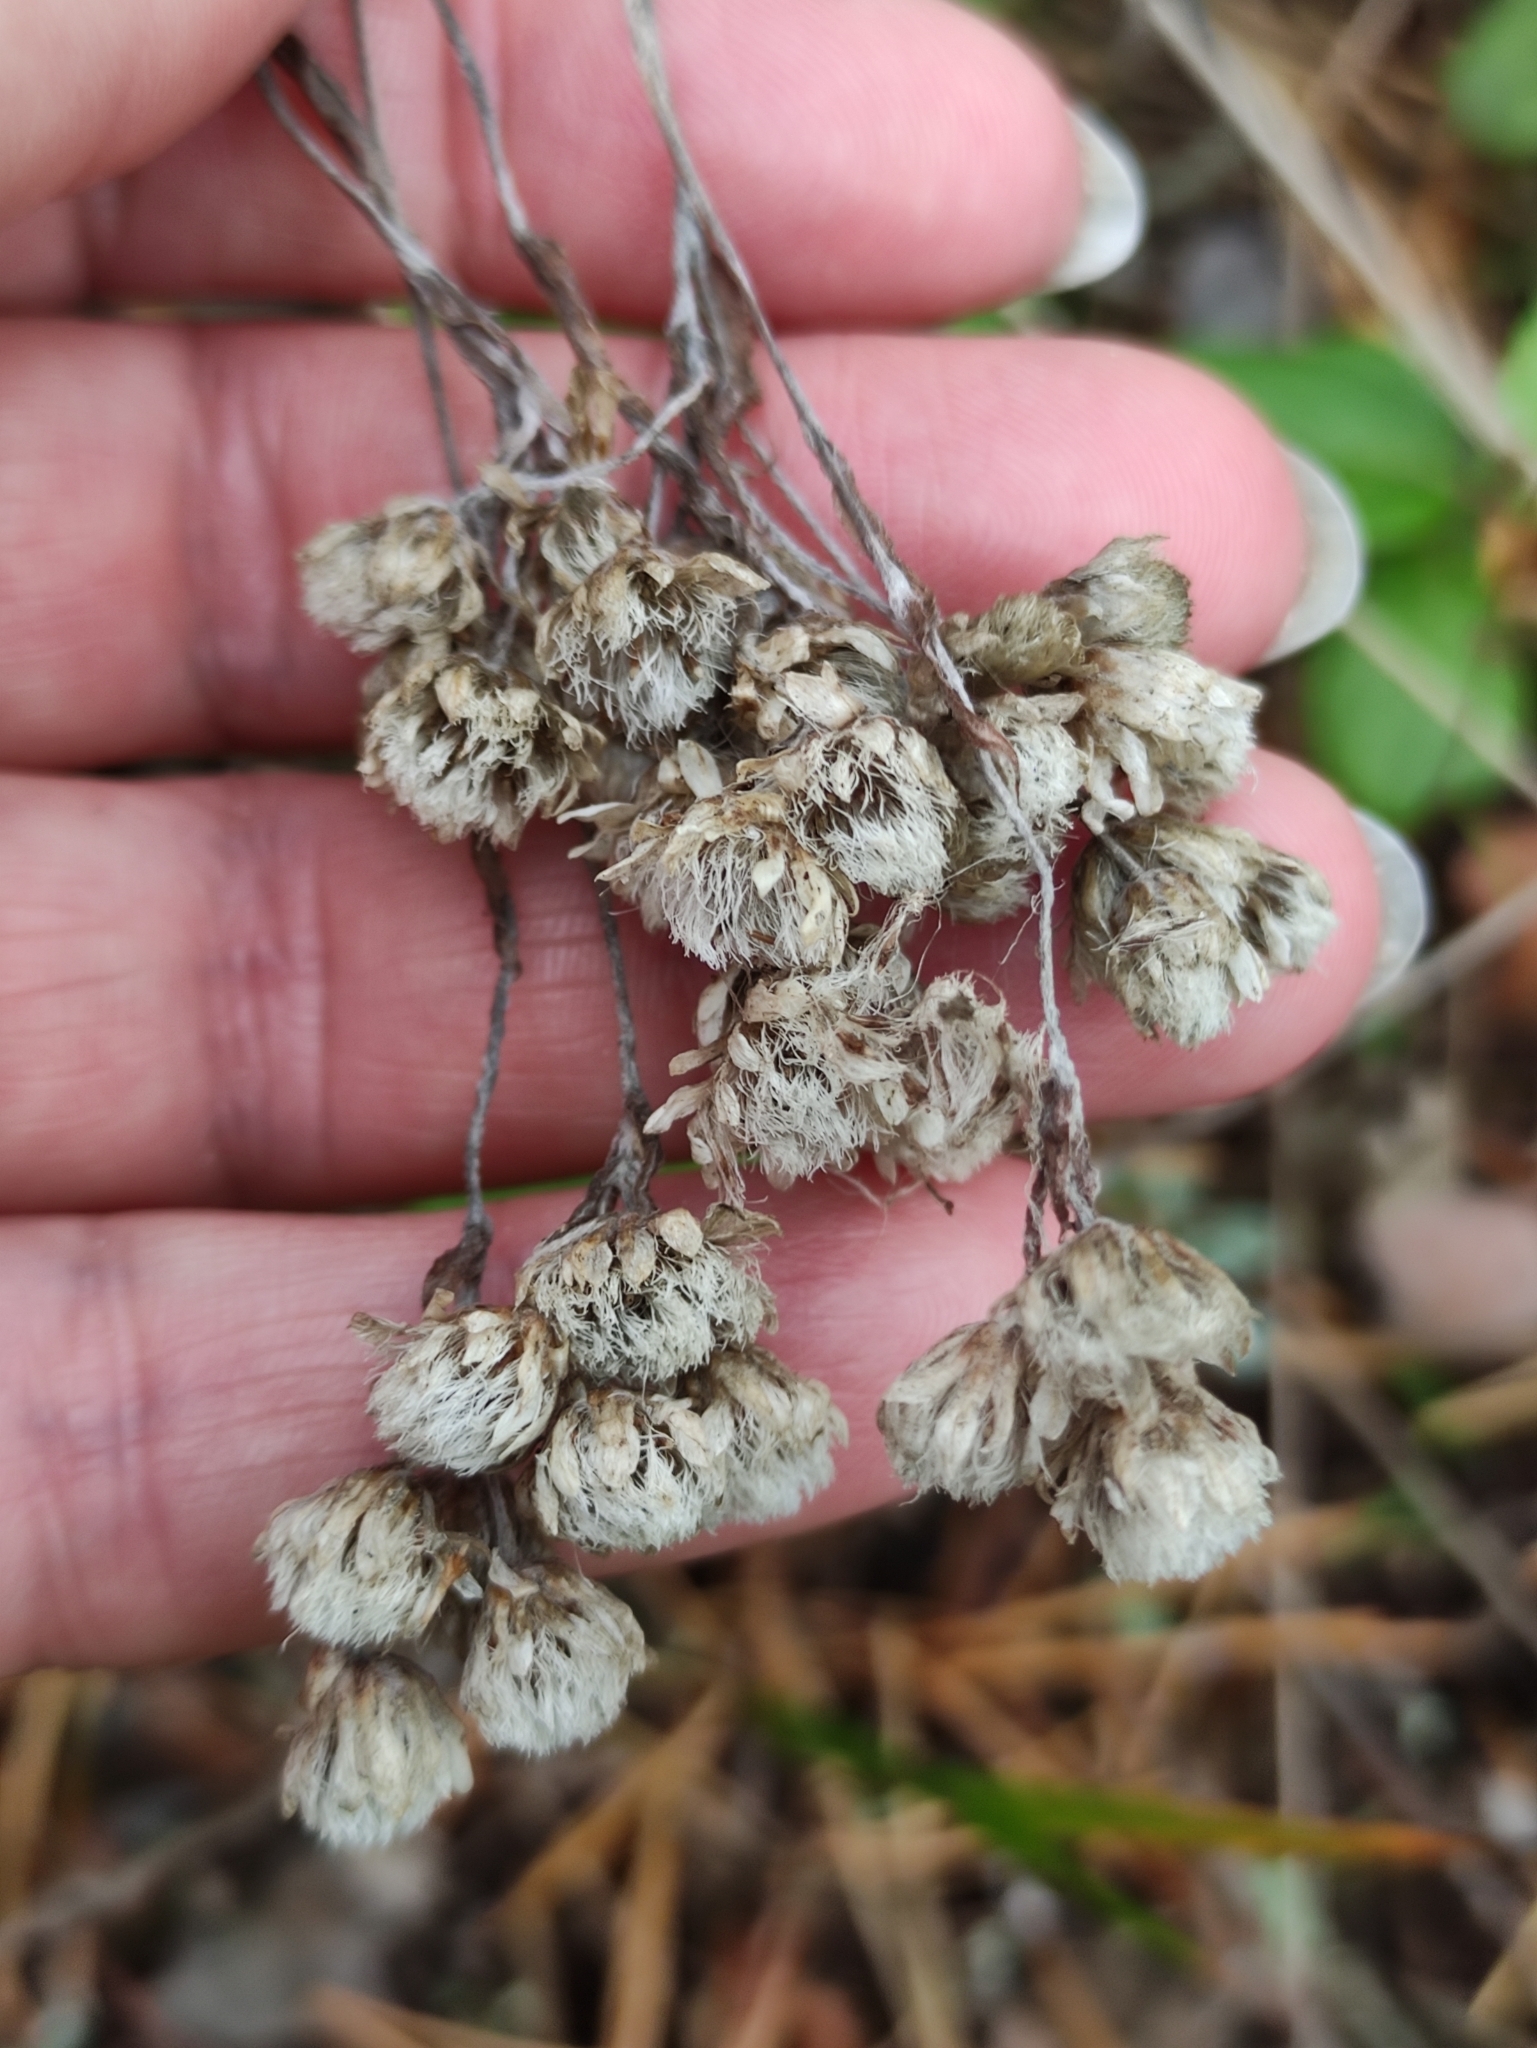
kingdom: Plantae
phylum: Tracheophyta
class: Magnoliopsida
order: Asterales
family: Asteraceae
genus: Antennaria
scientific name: Antennaria dioica
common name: Mountain everlasting
